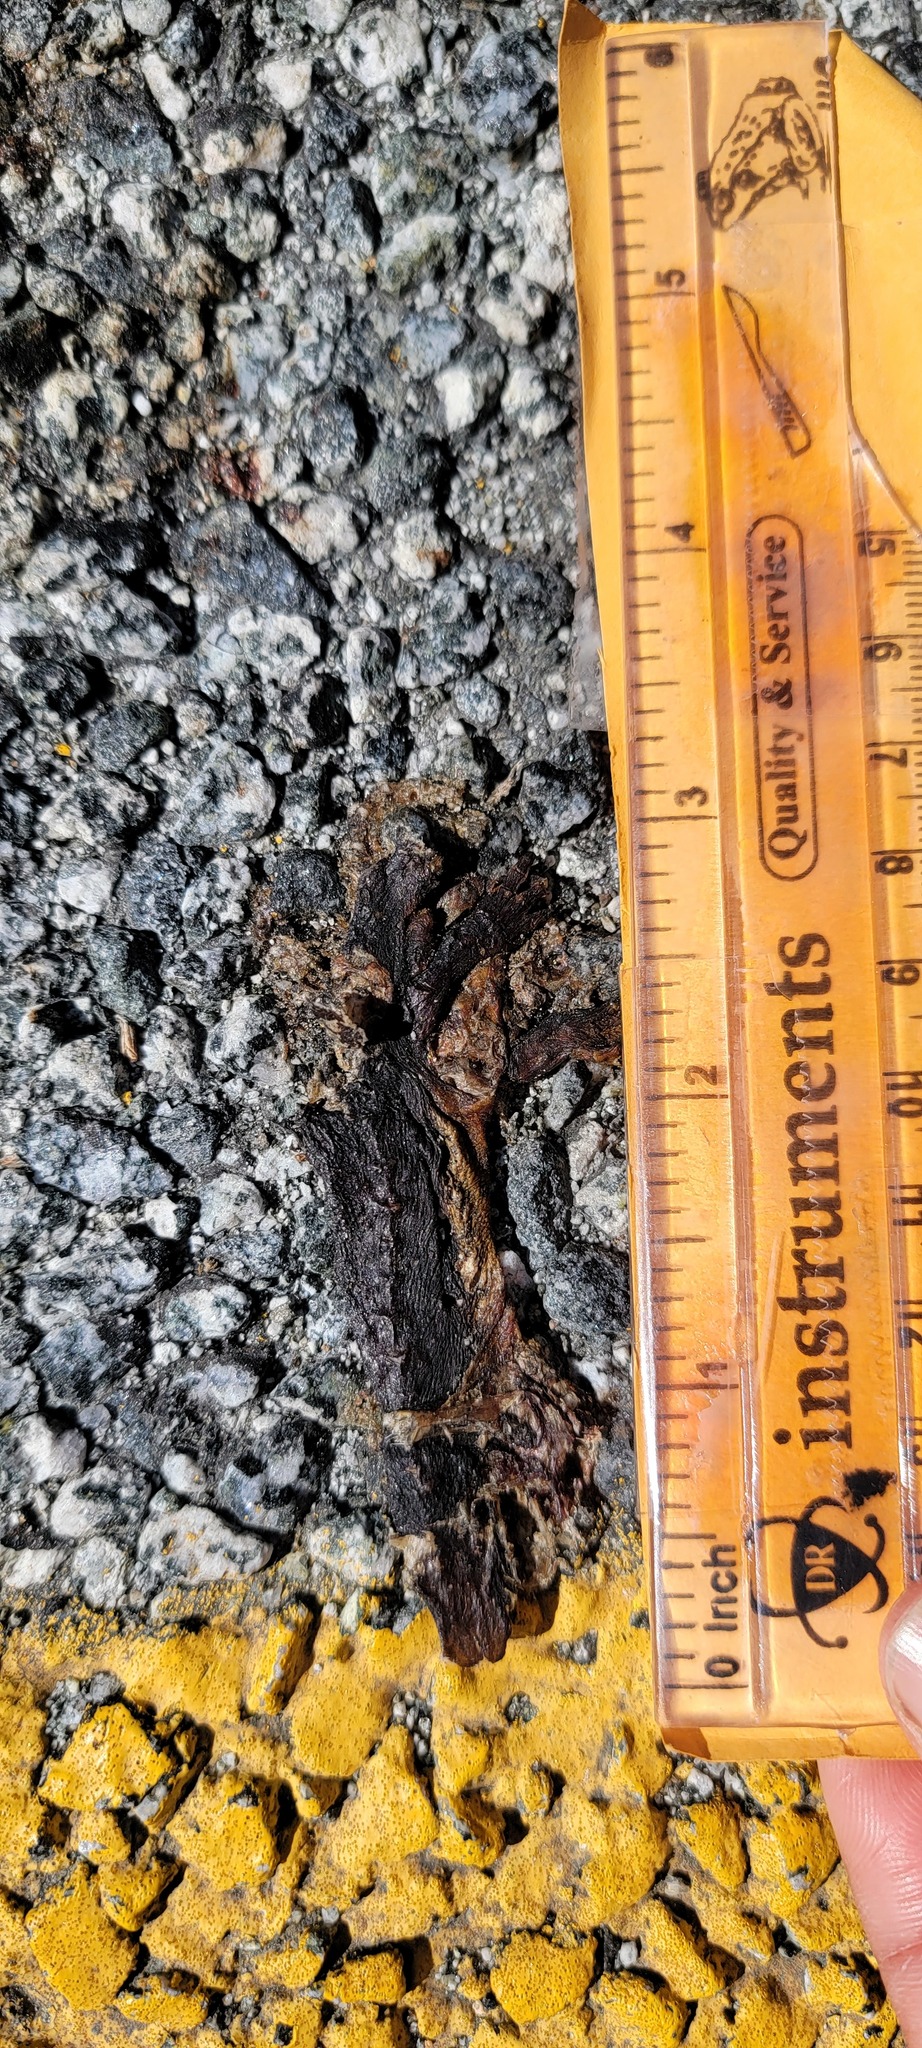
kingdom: Animalia
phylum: Chordata
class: Amphibia
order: Caudata
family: Salamandridae
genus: Taricha
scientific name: Taricha
